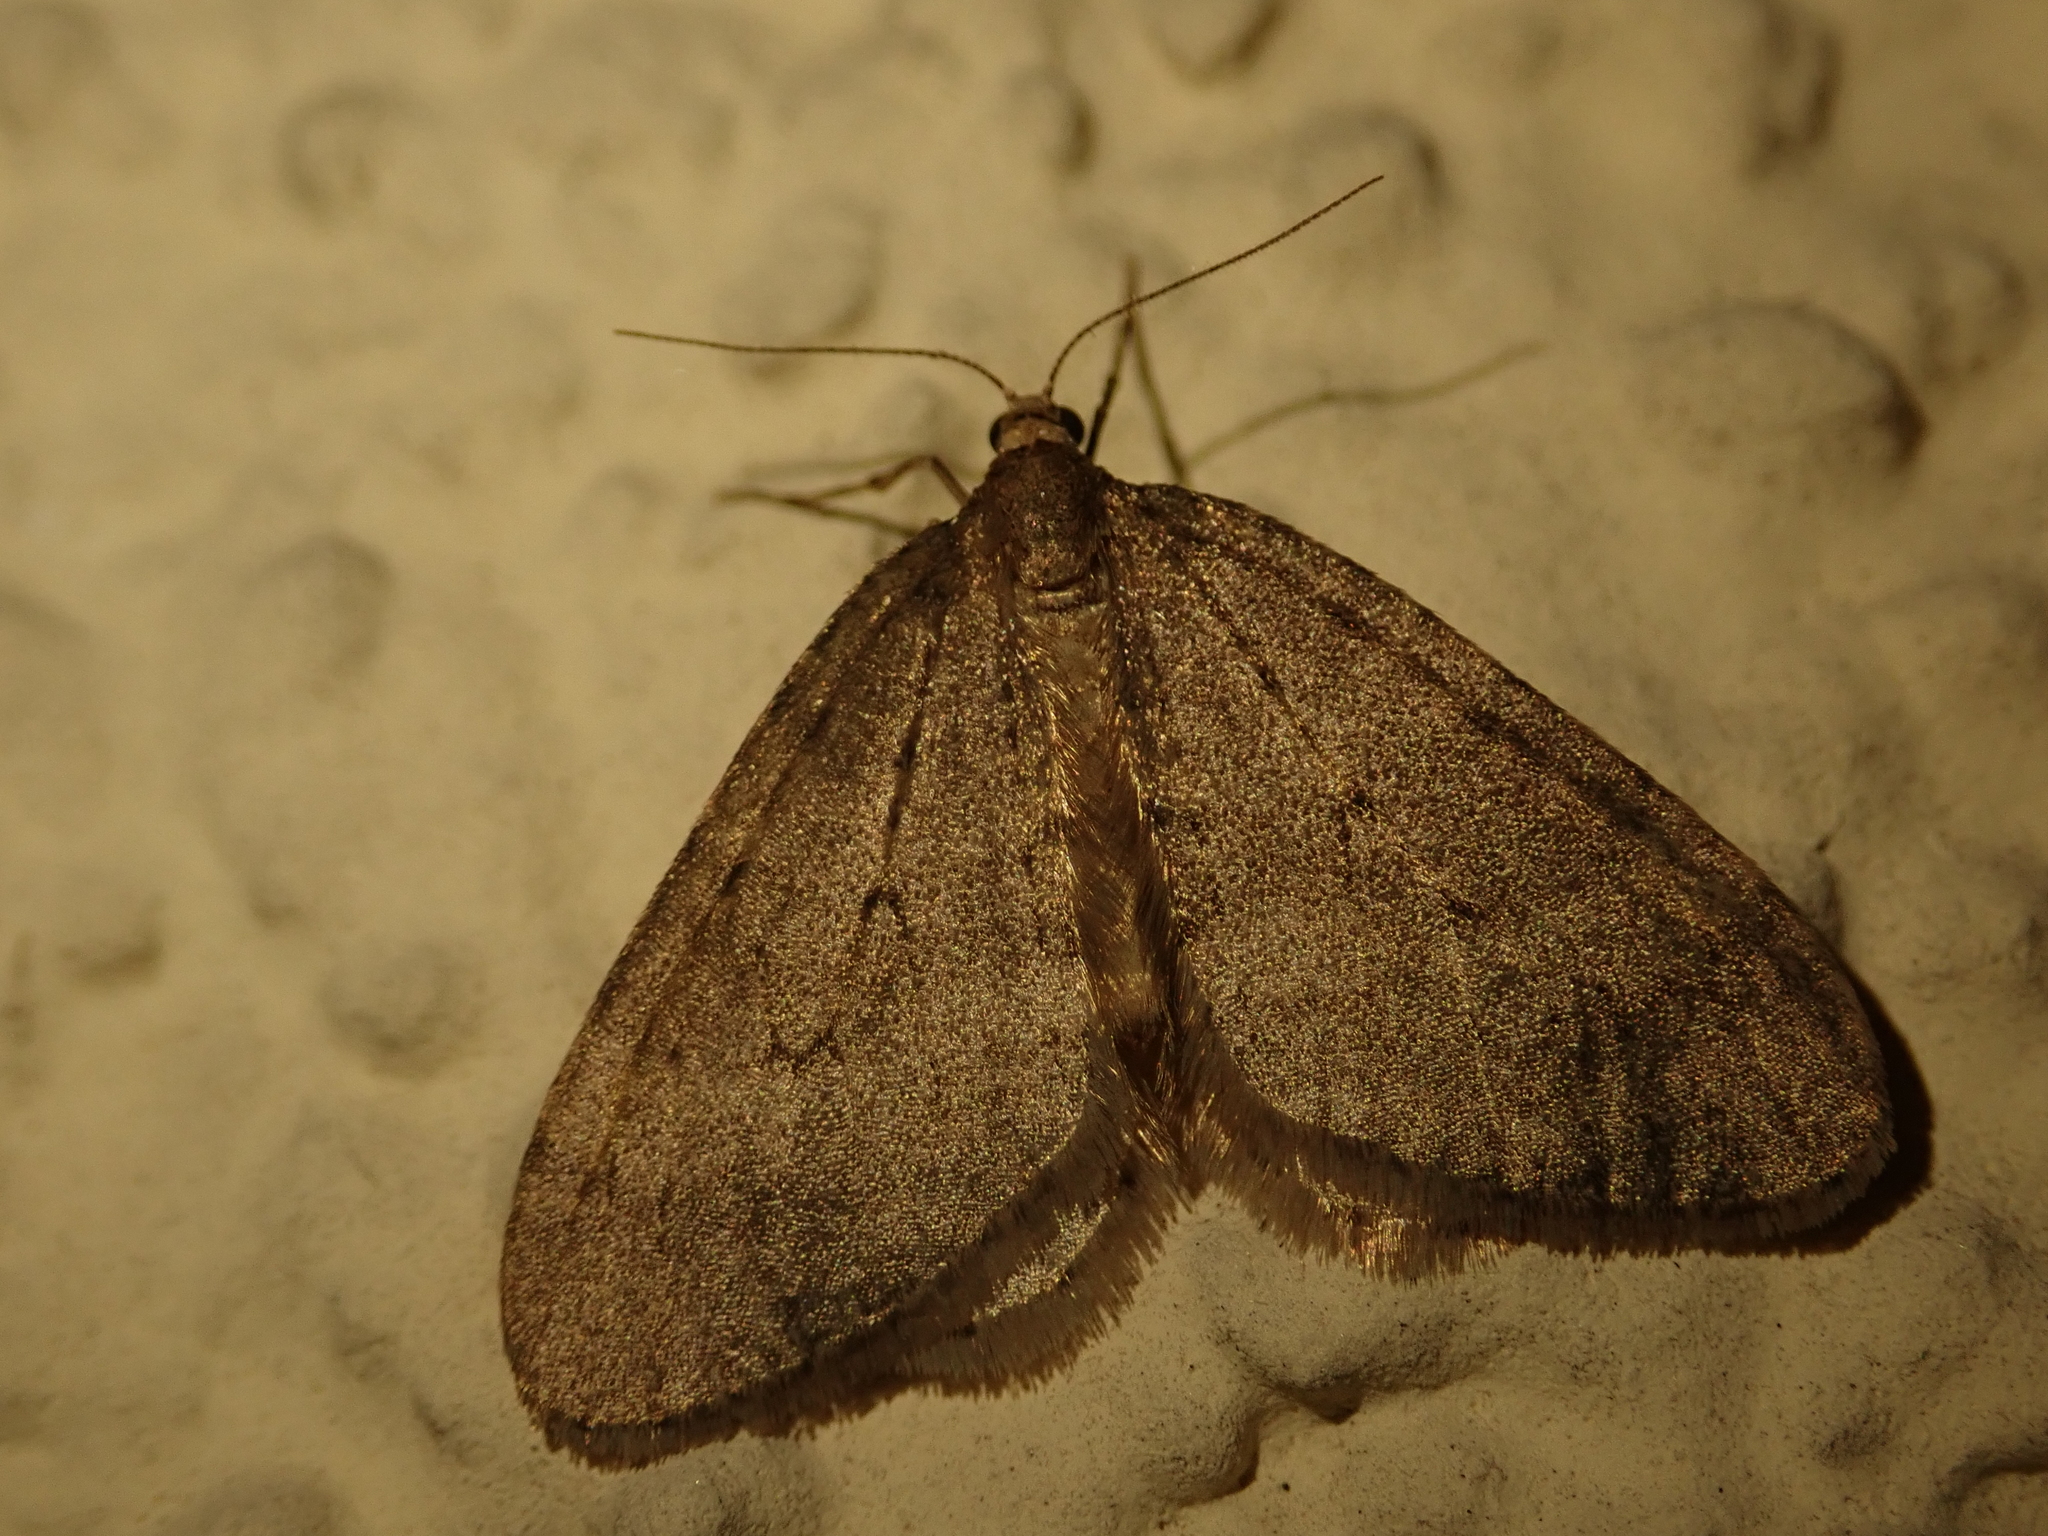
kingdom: Animalia
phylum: Arthropoda
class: Insecta
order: Lepidoptera
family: Geometridae
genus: Operophtera
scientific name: Operophtera brumata
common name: Winter moth
